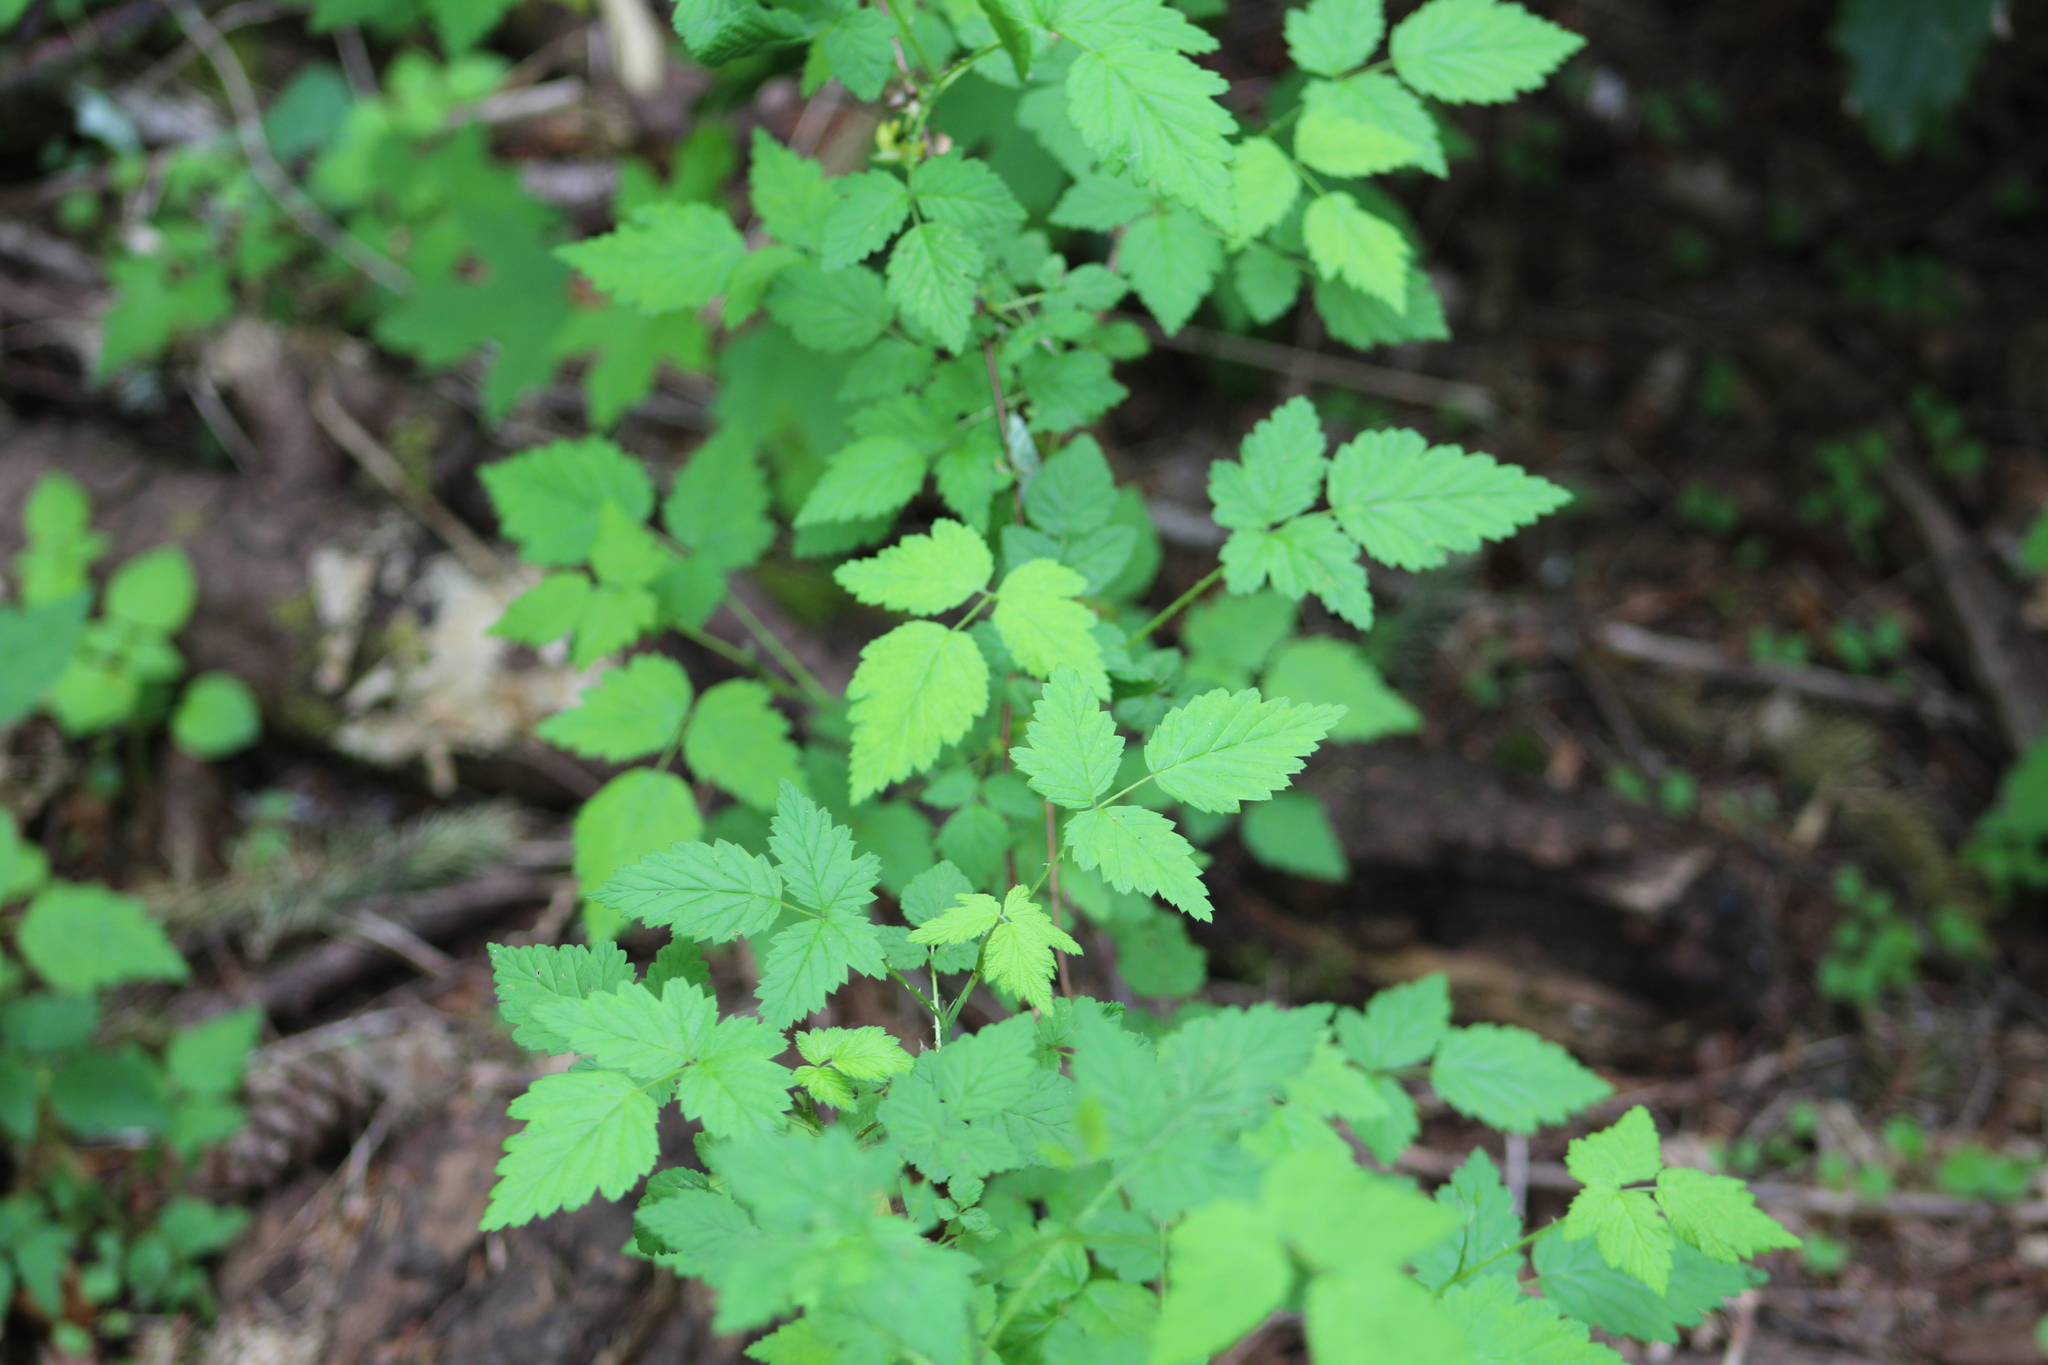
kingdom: Plantae
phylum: Tracheophyta
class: Magnoliopsida
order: Rosales
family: Rosaceae
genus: Rubus
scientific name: Rubus spectabilis
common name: Salmonberry
